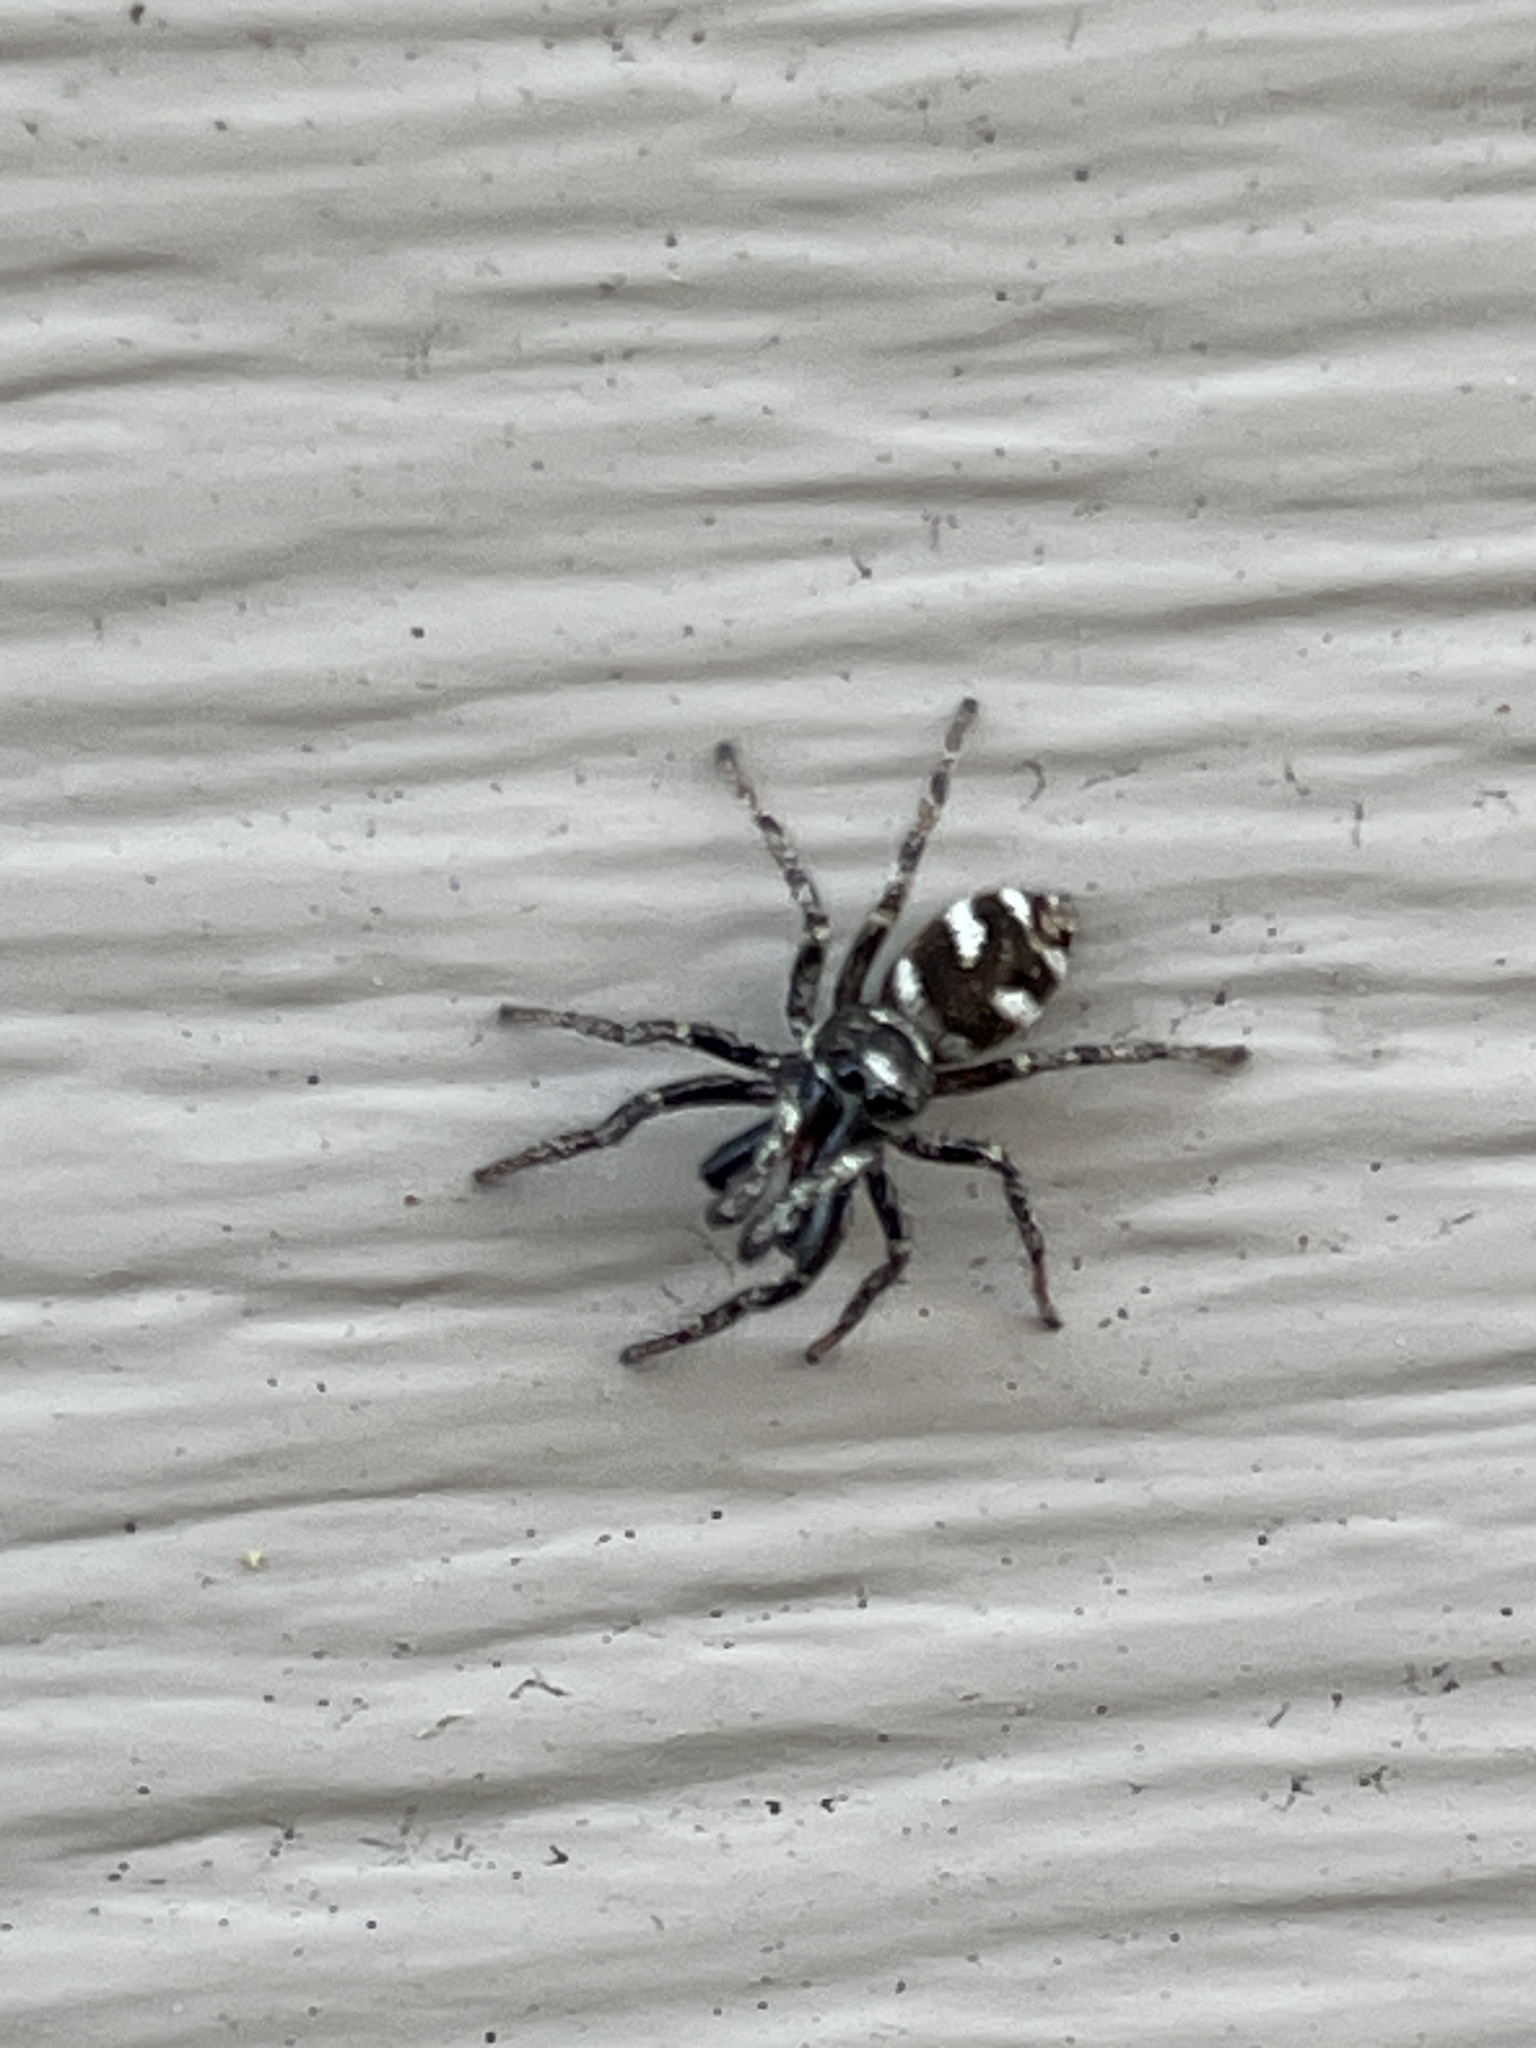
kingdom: Animalia
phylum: Arthropoda
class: Arachnida
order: Araneae
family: Salticidae
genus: Salticus
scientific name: Salticus scenicus
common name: Zebra jumper
